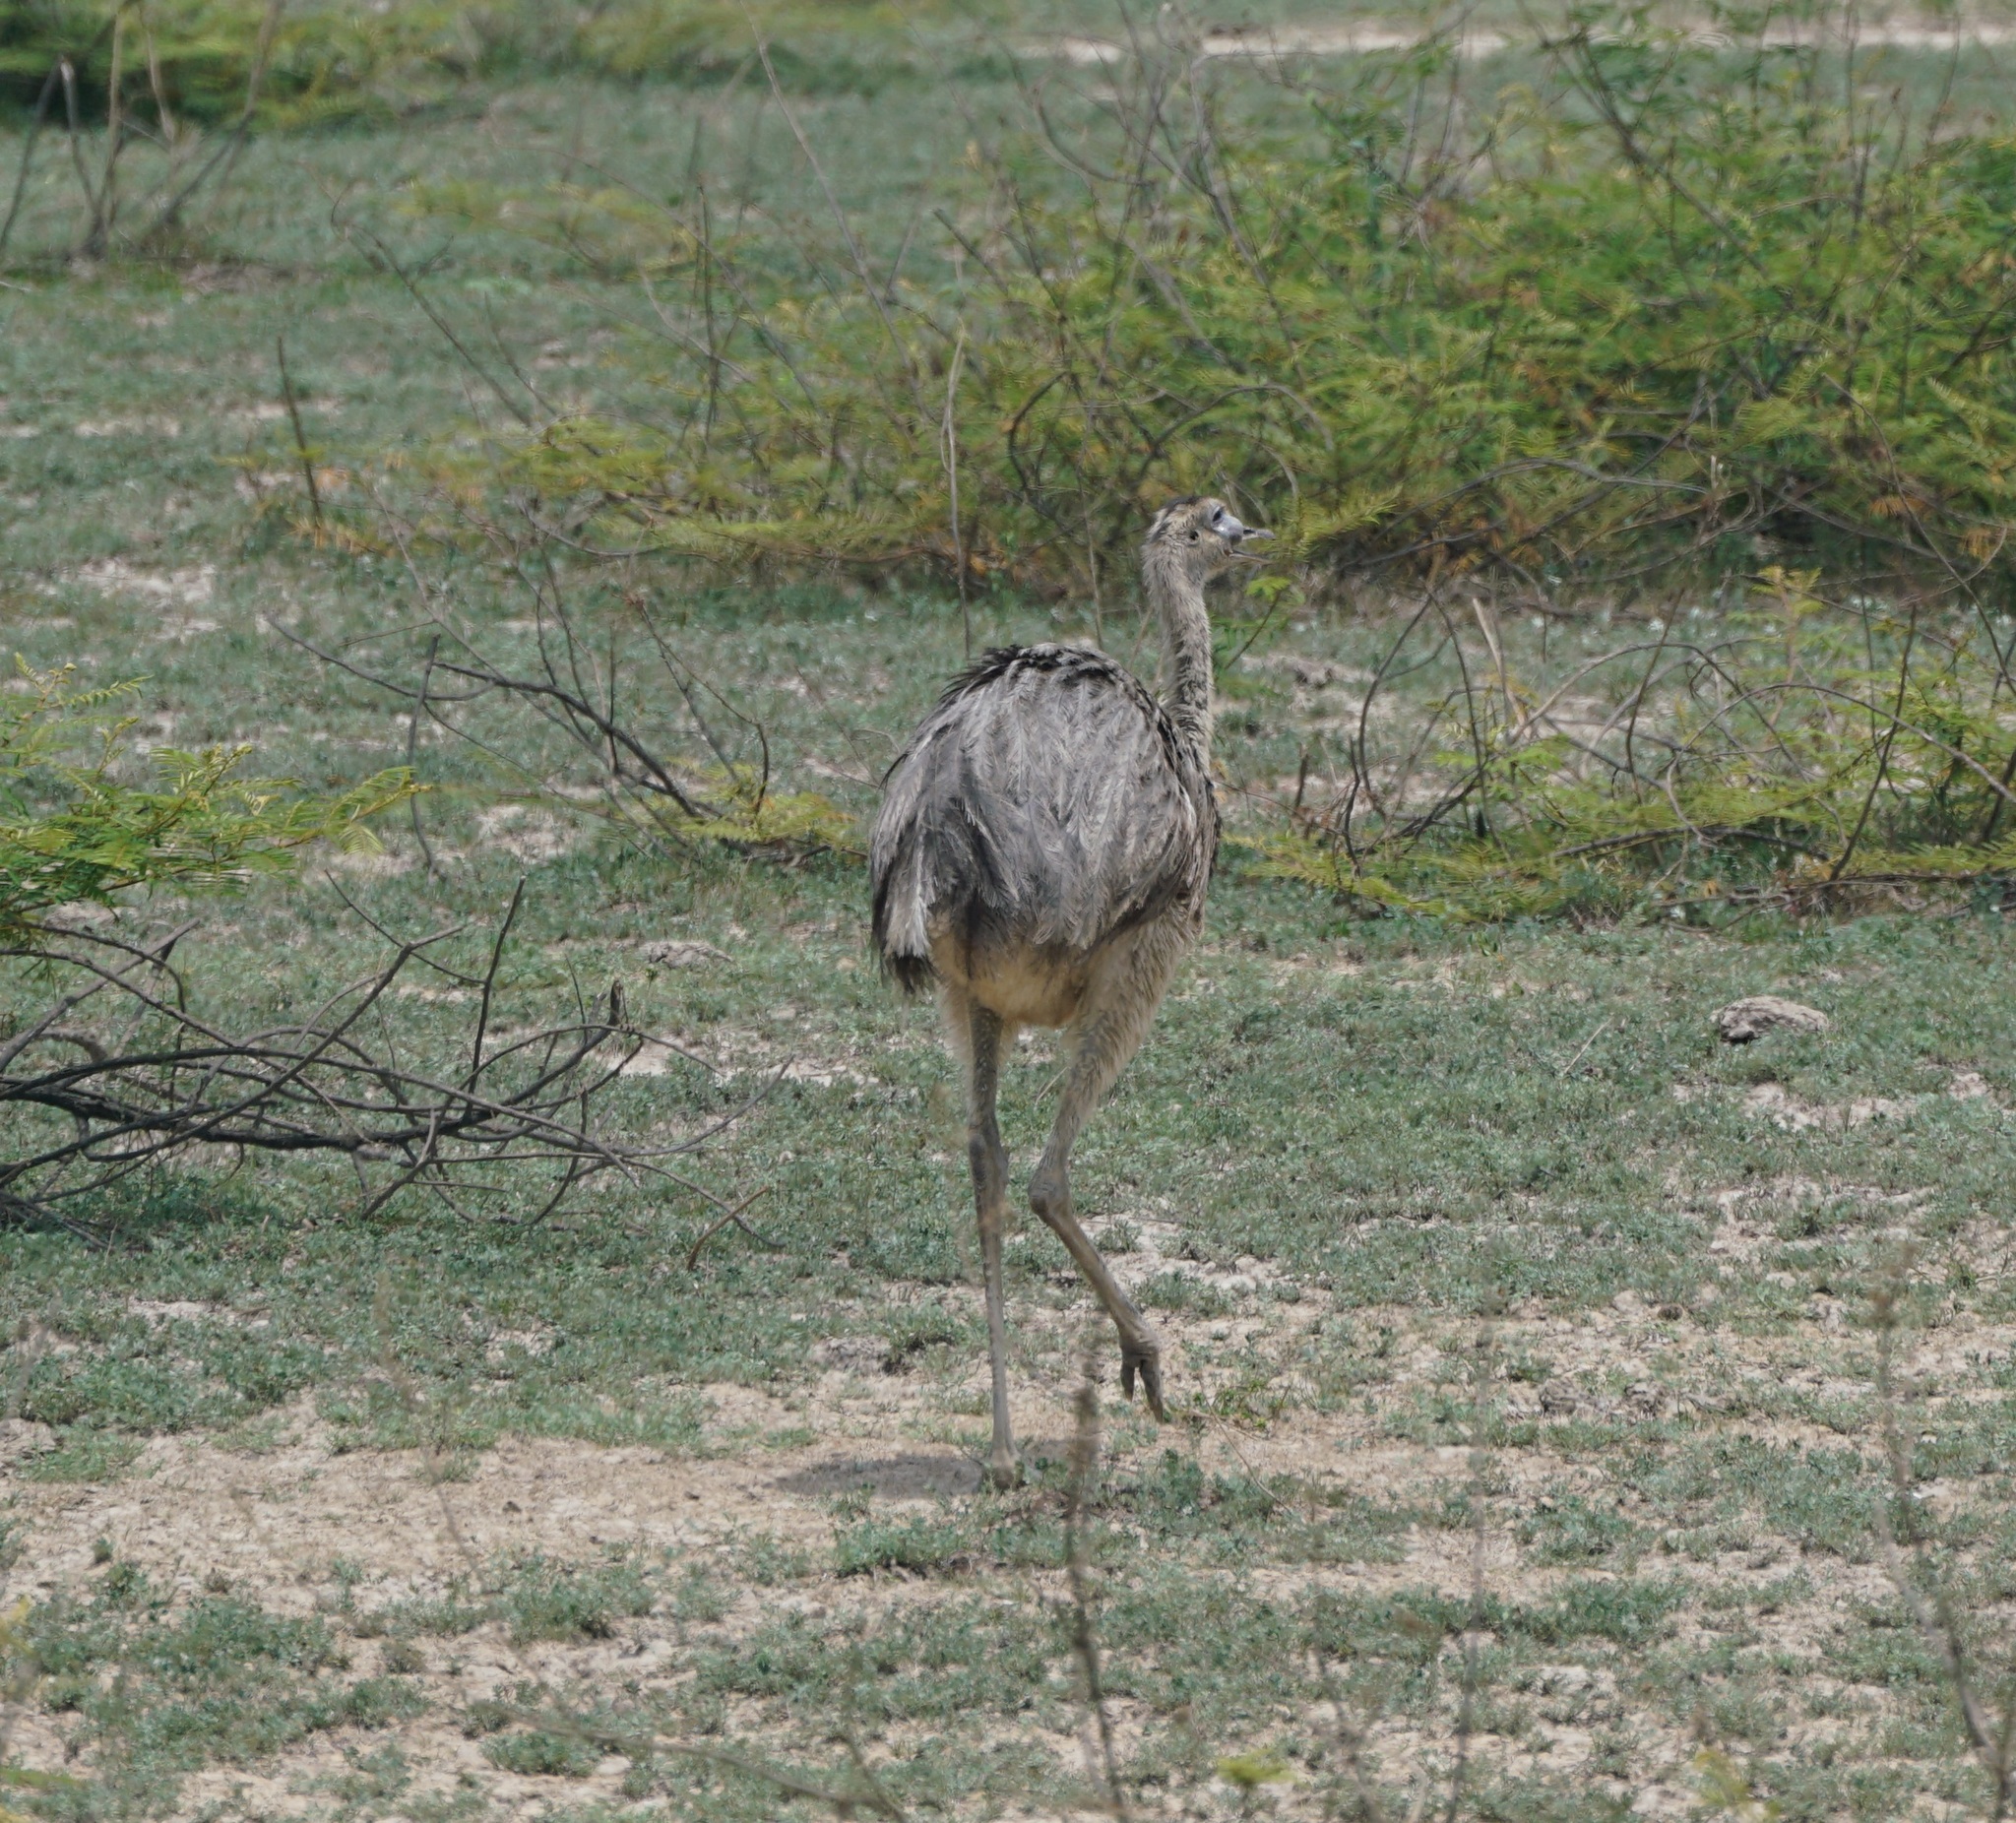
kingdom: Animalia
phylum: Chordata
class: Aves
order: Rheiformes
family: Rheidae
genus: Rhea
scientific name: Rhea americana
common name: Greater rhea
